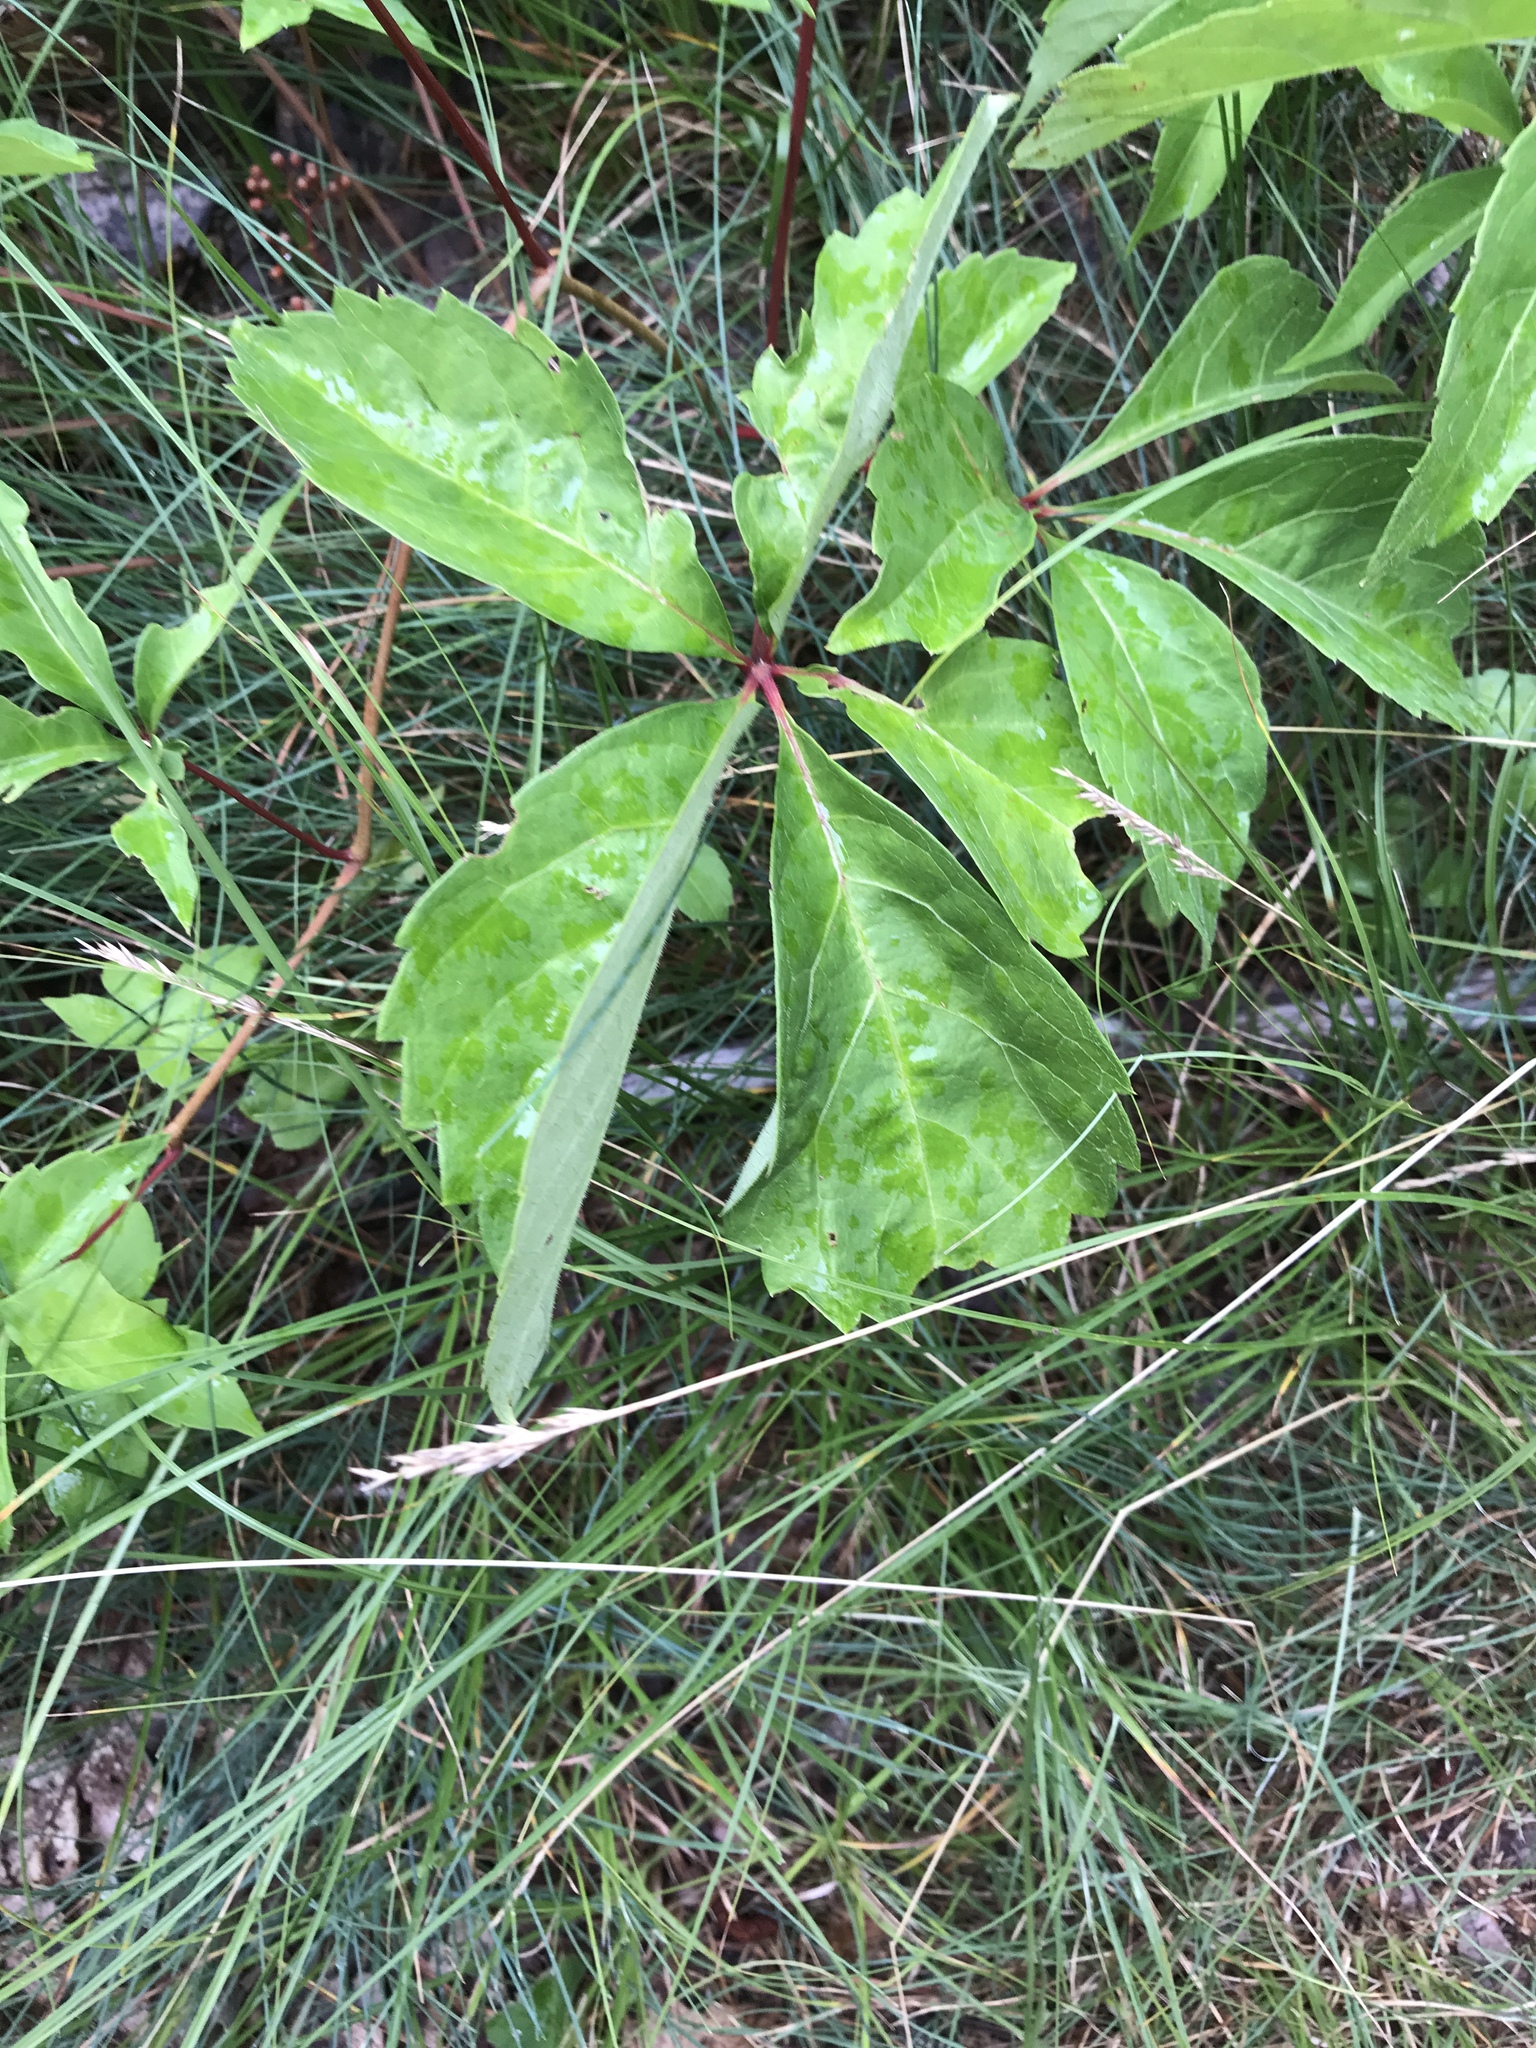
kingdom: Plantae
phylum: Tracheophyta
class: Magnoliopsida
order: Vitales
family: Vitaceae
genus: Parthenocissus
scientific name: Parthenocissus quinquefolia
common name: Virginia-creeper
